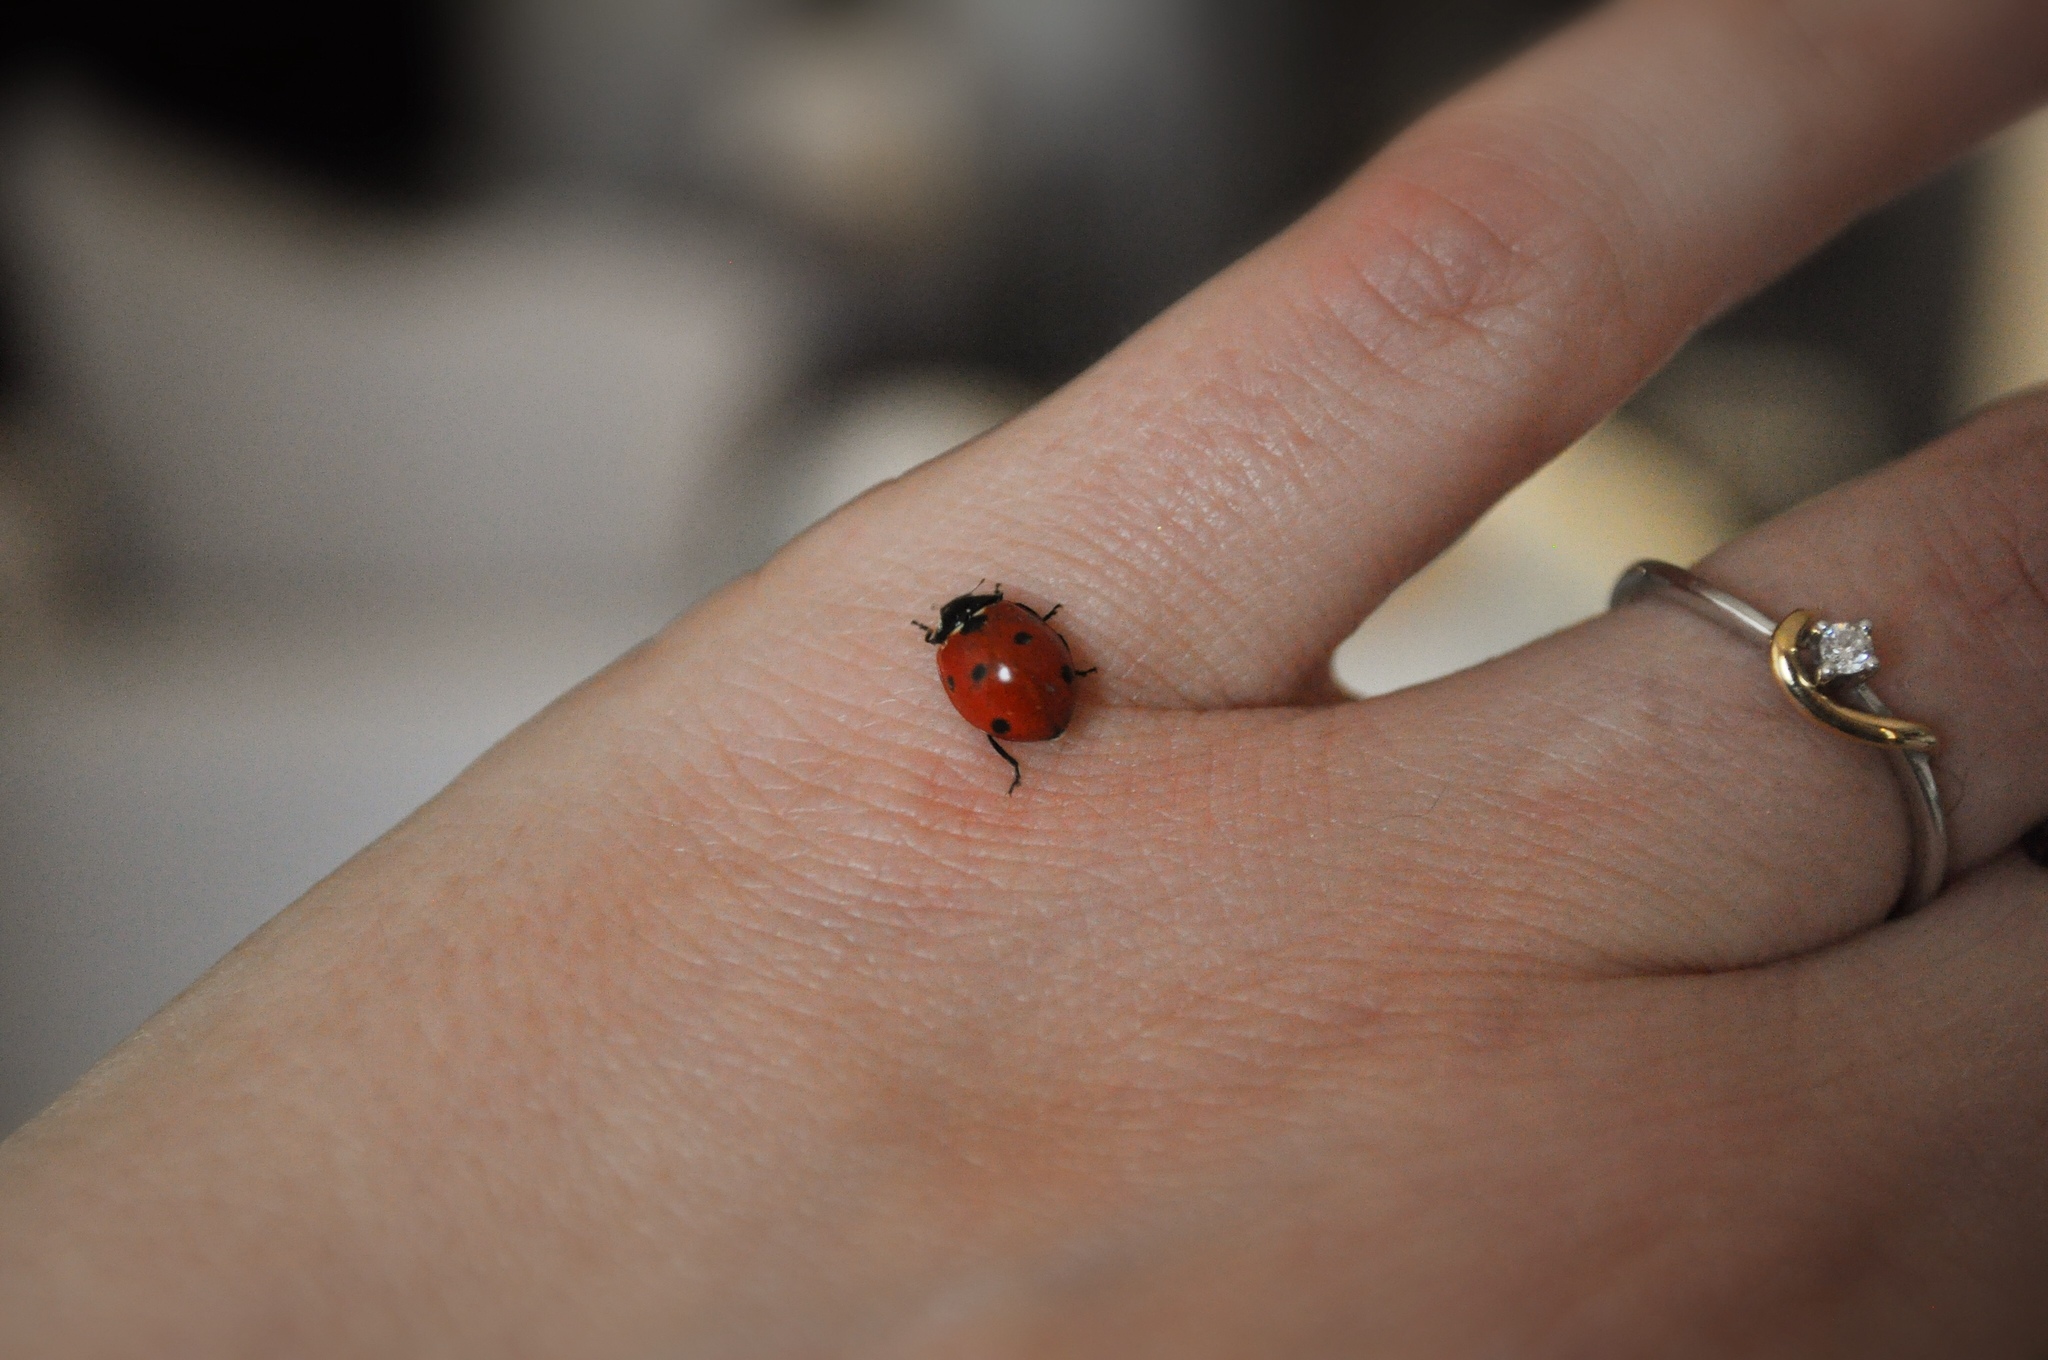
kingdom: Animalia
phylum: Arthropoda
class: Insecta
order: Coleoptera
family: Coccinellidae
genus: Coccinella
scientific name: Coccinella septempunctata
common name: Sevenspotted lady beetle
